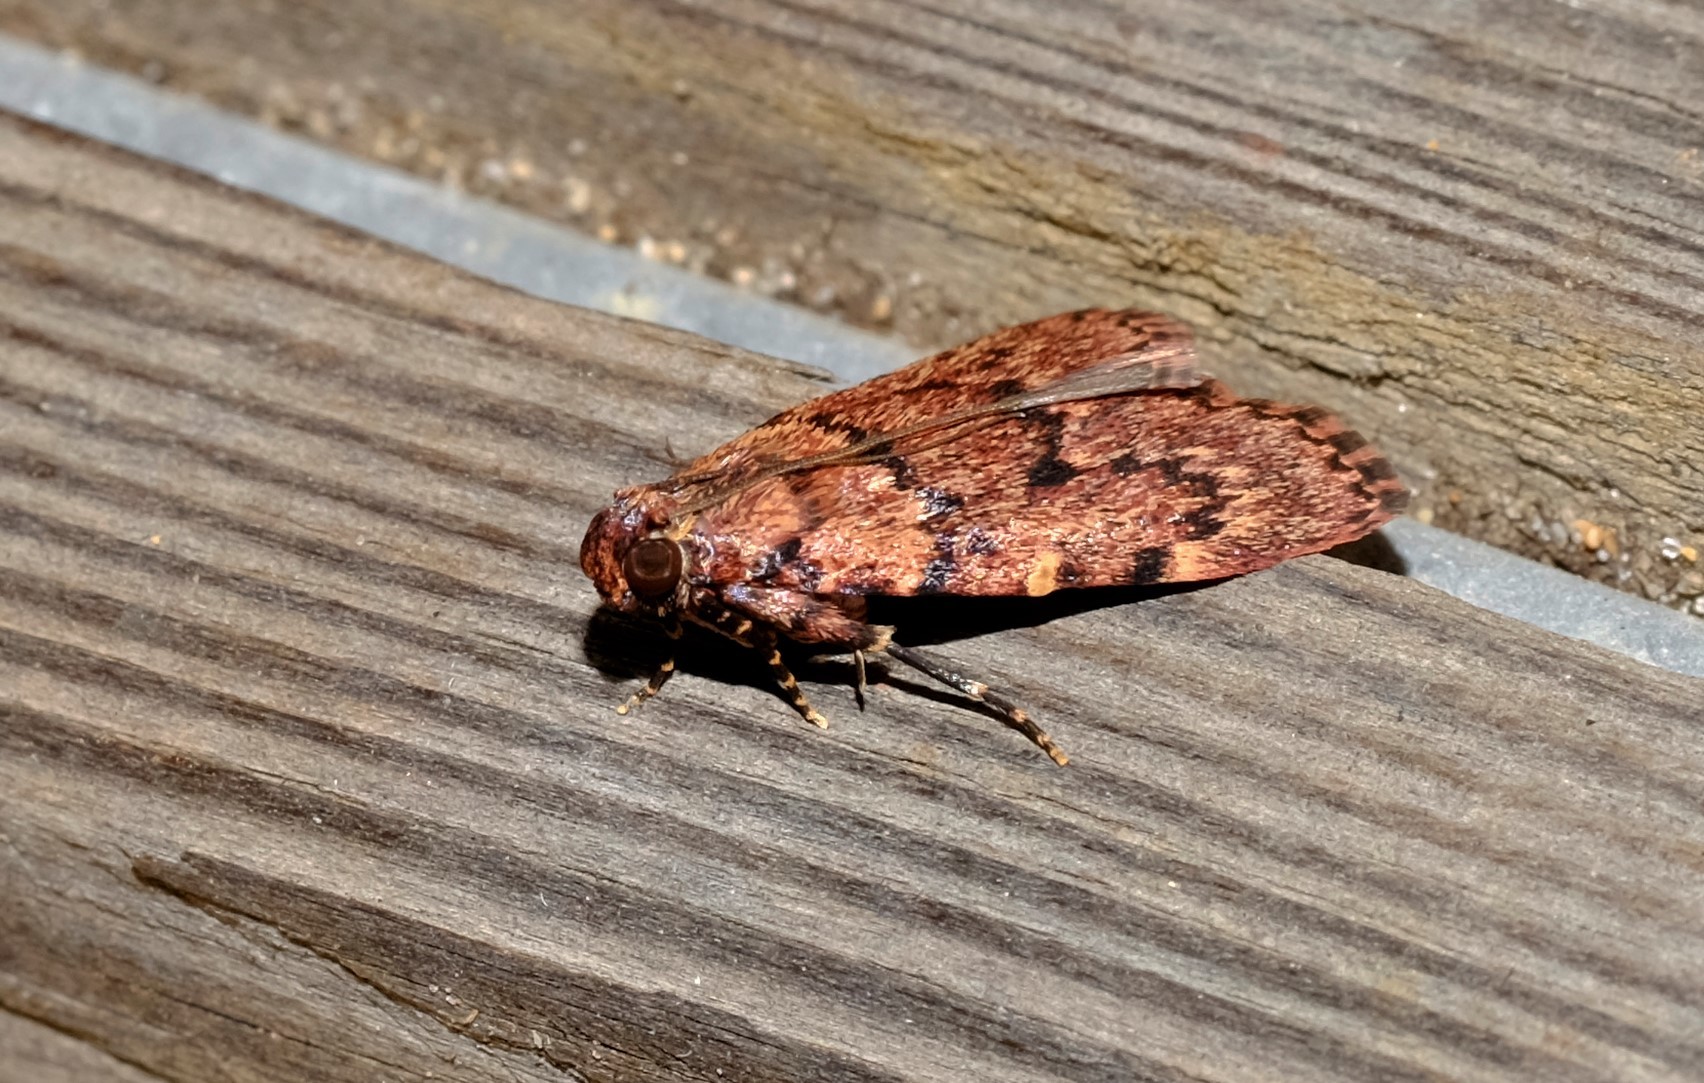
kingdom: Animalia
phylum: Arthropoda
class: Insecta
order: Lepidoptera
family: Pyralidae
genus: Mimaglossa
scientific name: Mimaglossa nauplialis
